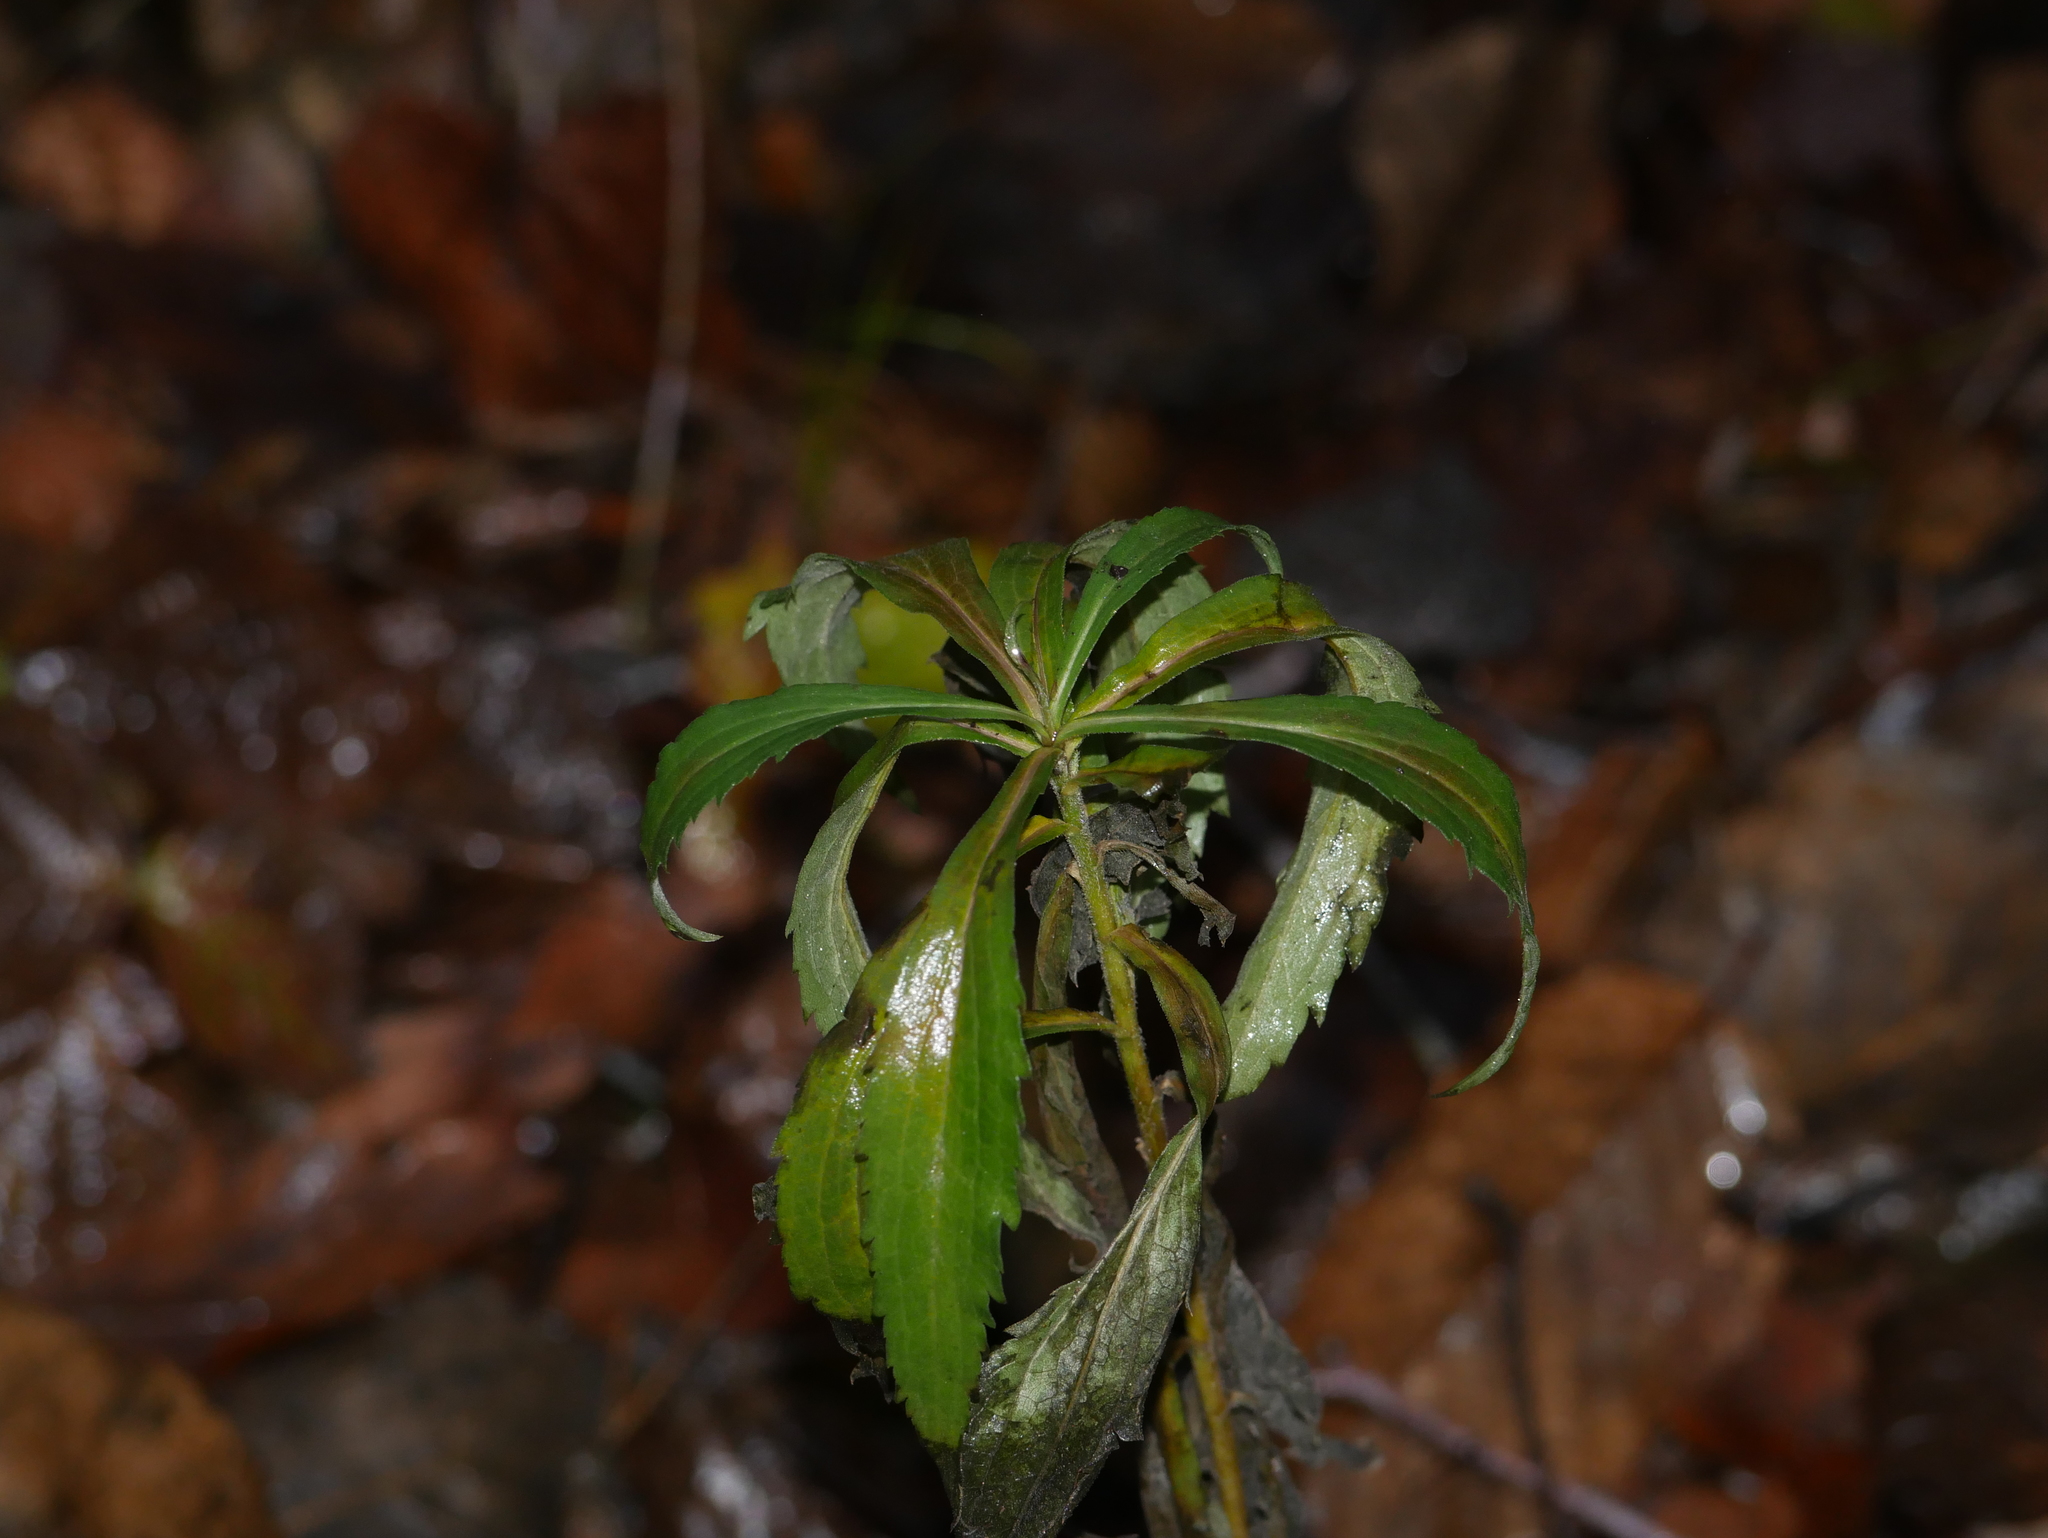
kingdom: Plantae
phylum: Tracheophyta
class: Magnoliopsida
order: Asterales
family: Asteraceae
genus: Solidago
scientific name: Solidago canadensis
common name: Canada goldenrod
